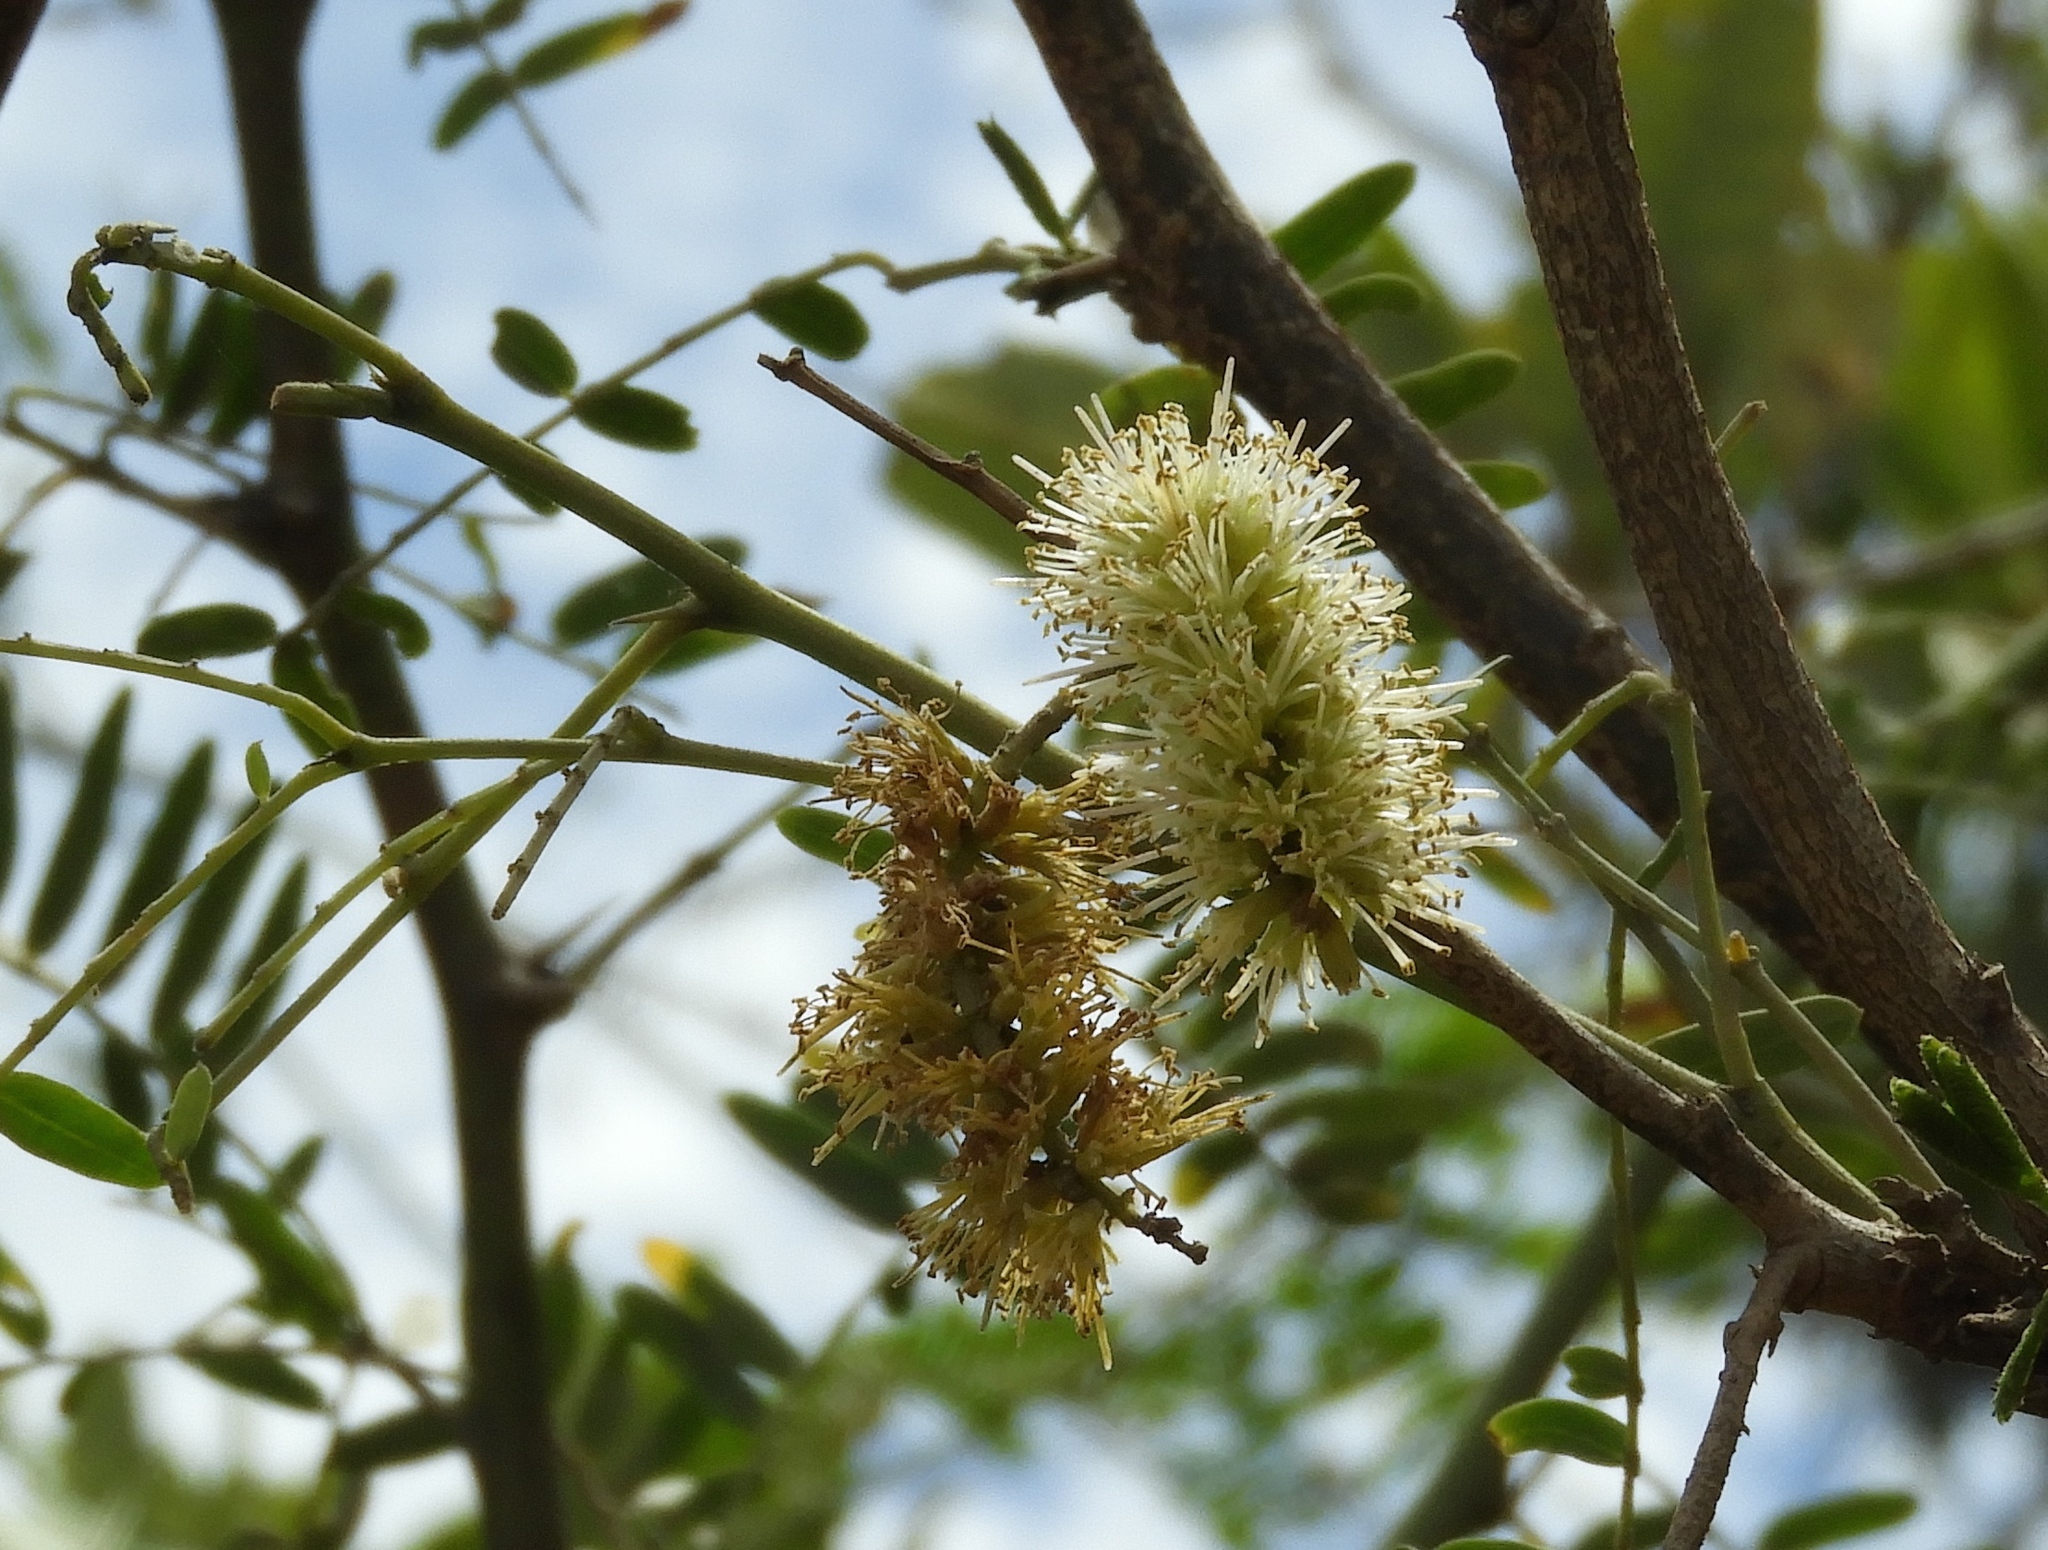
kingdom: Plantae
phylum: Tracheophyta
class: Magnoliopsida
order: Fabales
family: Fabaceae
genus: Prosopis
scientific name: Prosopis glandulosa
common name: Honey mesquite
